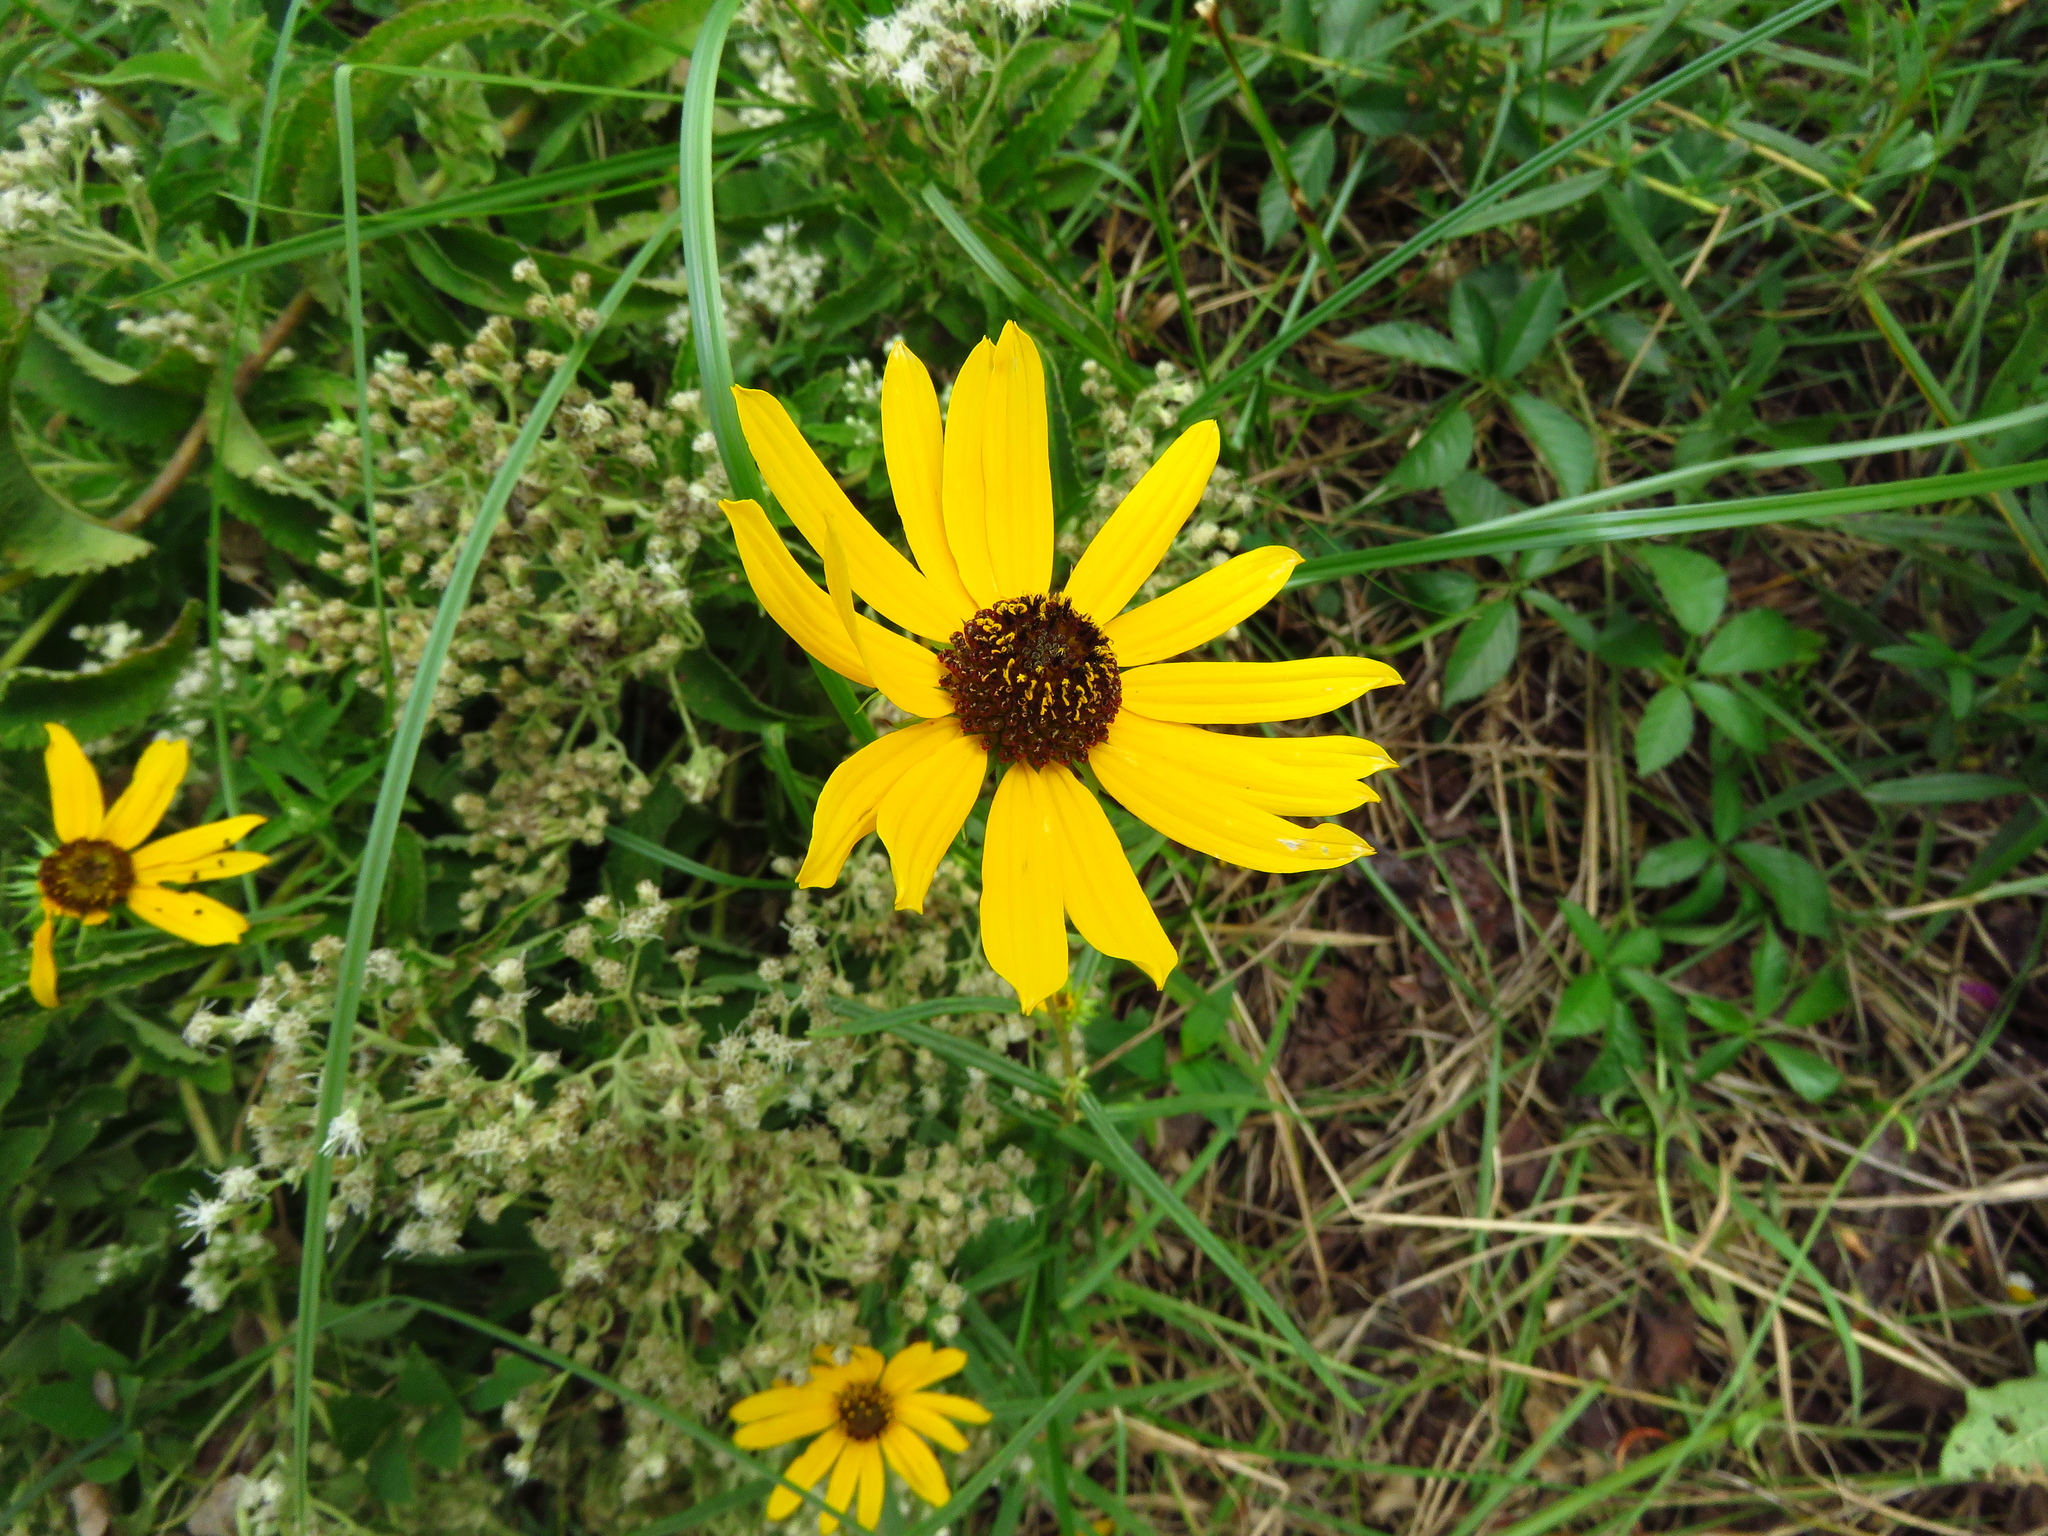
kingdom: Plantae
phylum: Tracheophyta
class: Magnoliopsida
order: Asterales
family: Asteraceae
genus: Helianthus
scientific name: Helianthus angustifolius
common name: Swamp sunflower
